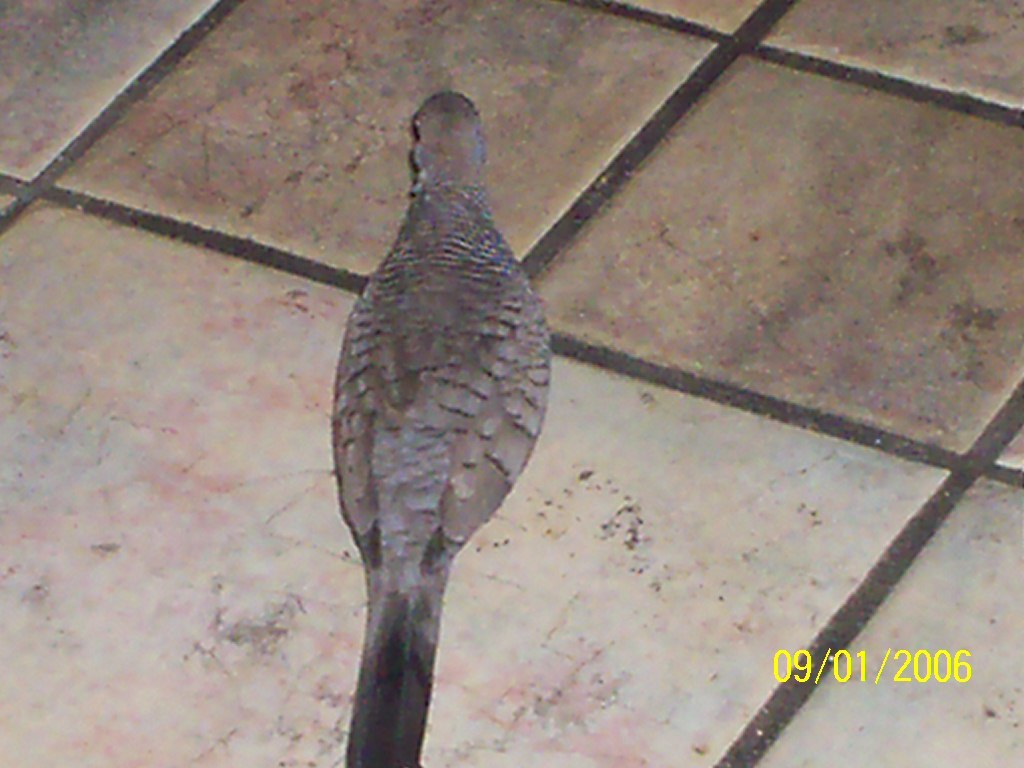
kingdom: Animalia
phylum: Chordata
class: Aves
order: Columbiformes
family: Columbidae
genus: Geopelia
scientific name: Geopelia striata
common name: Zebra dove
